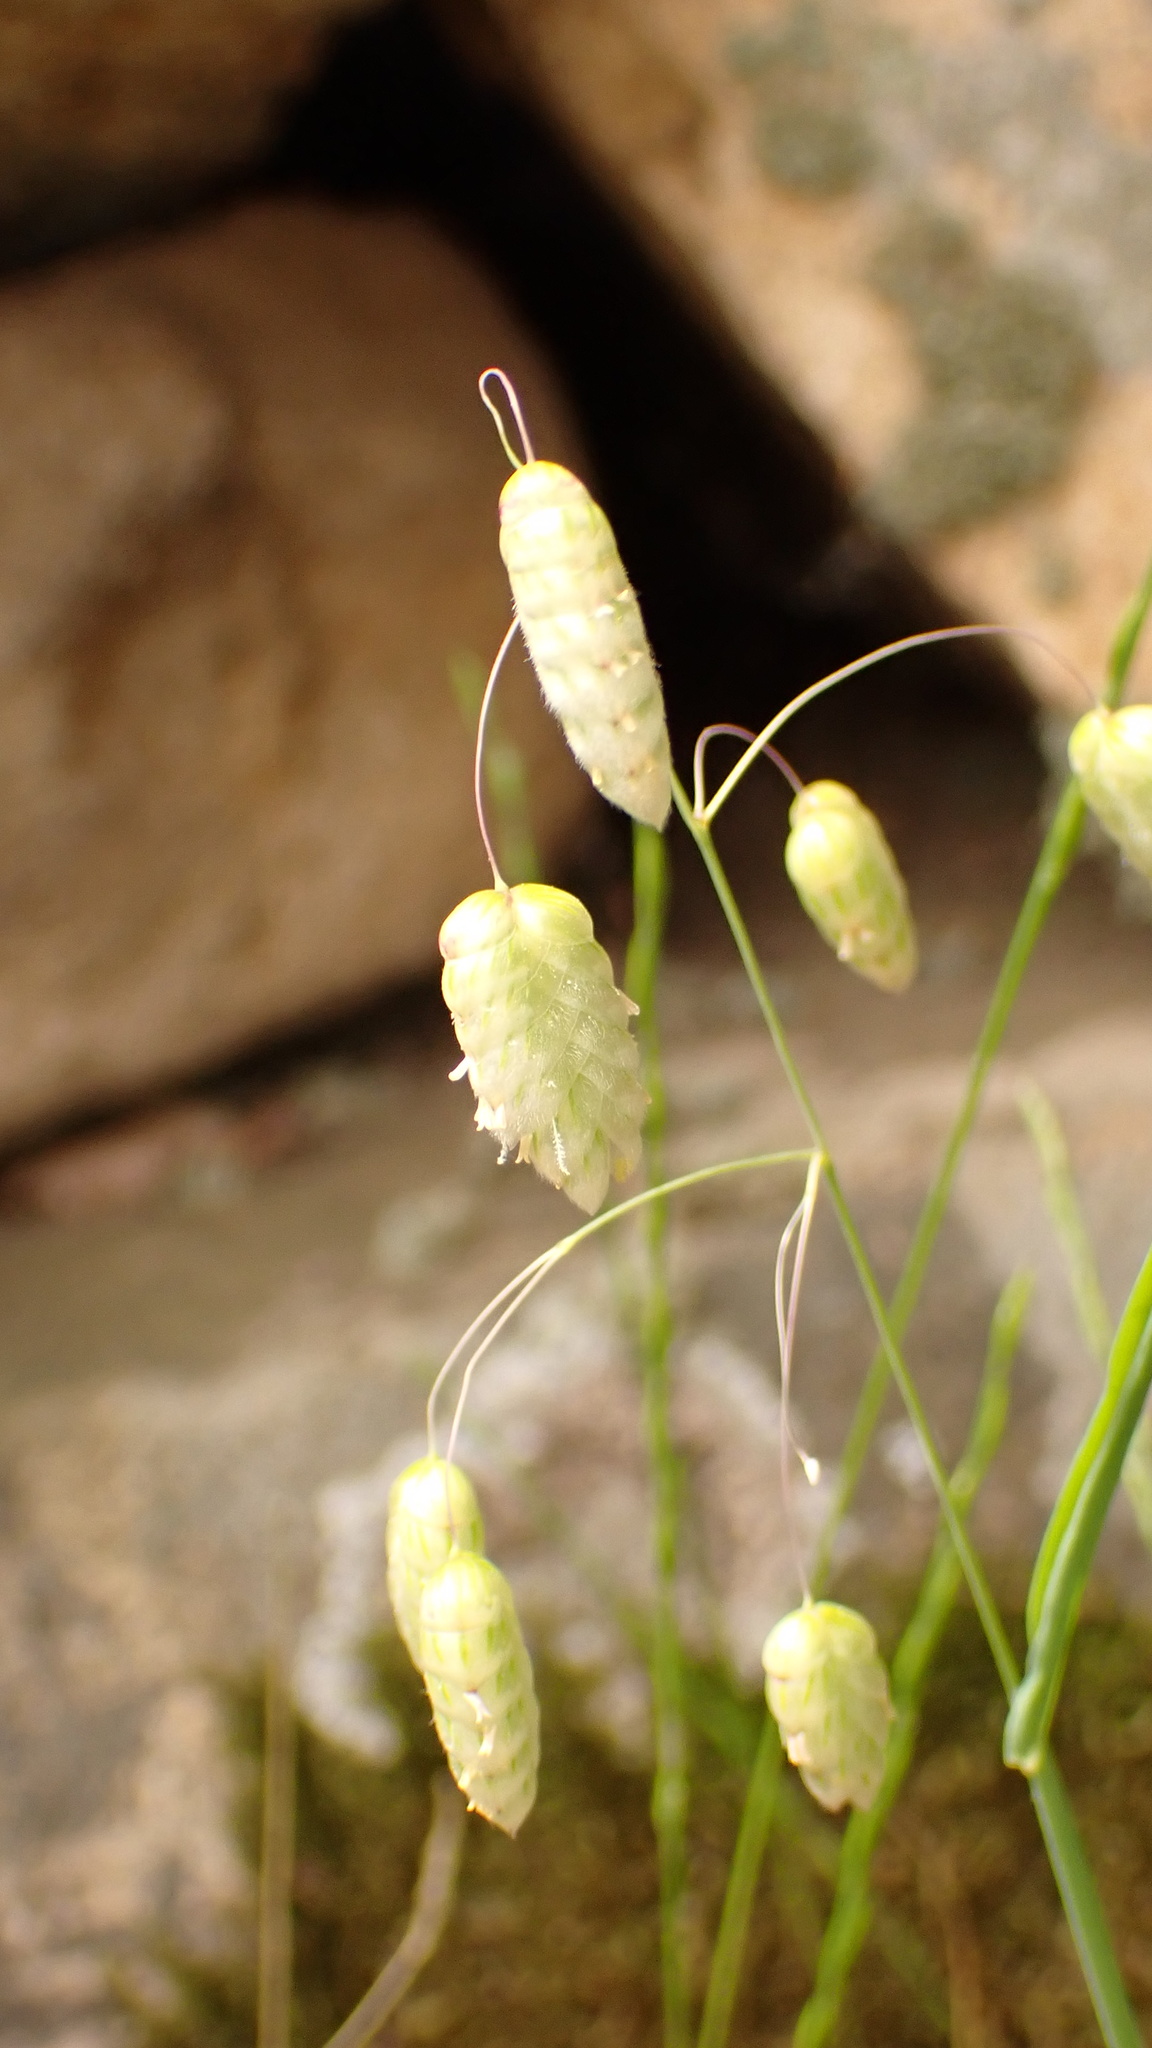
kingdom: Plantae
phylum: Tracheophyta
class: Liliopsida
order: Poales
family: Poaceae
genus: Briza
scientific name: Briza maxima
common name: Big quakinggrass
